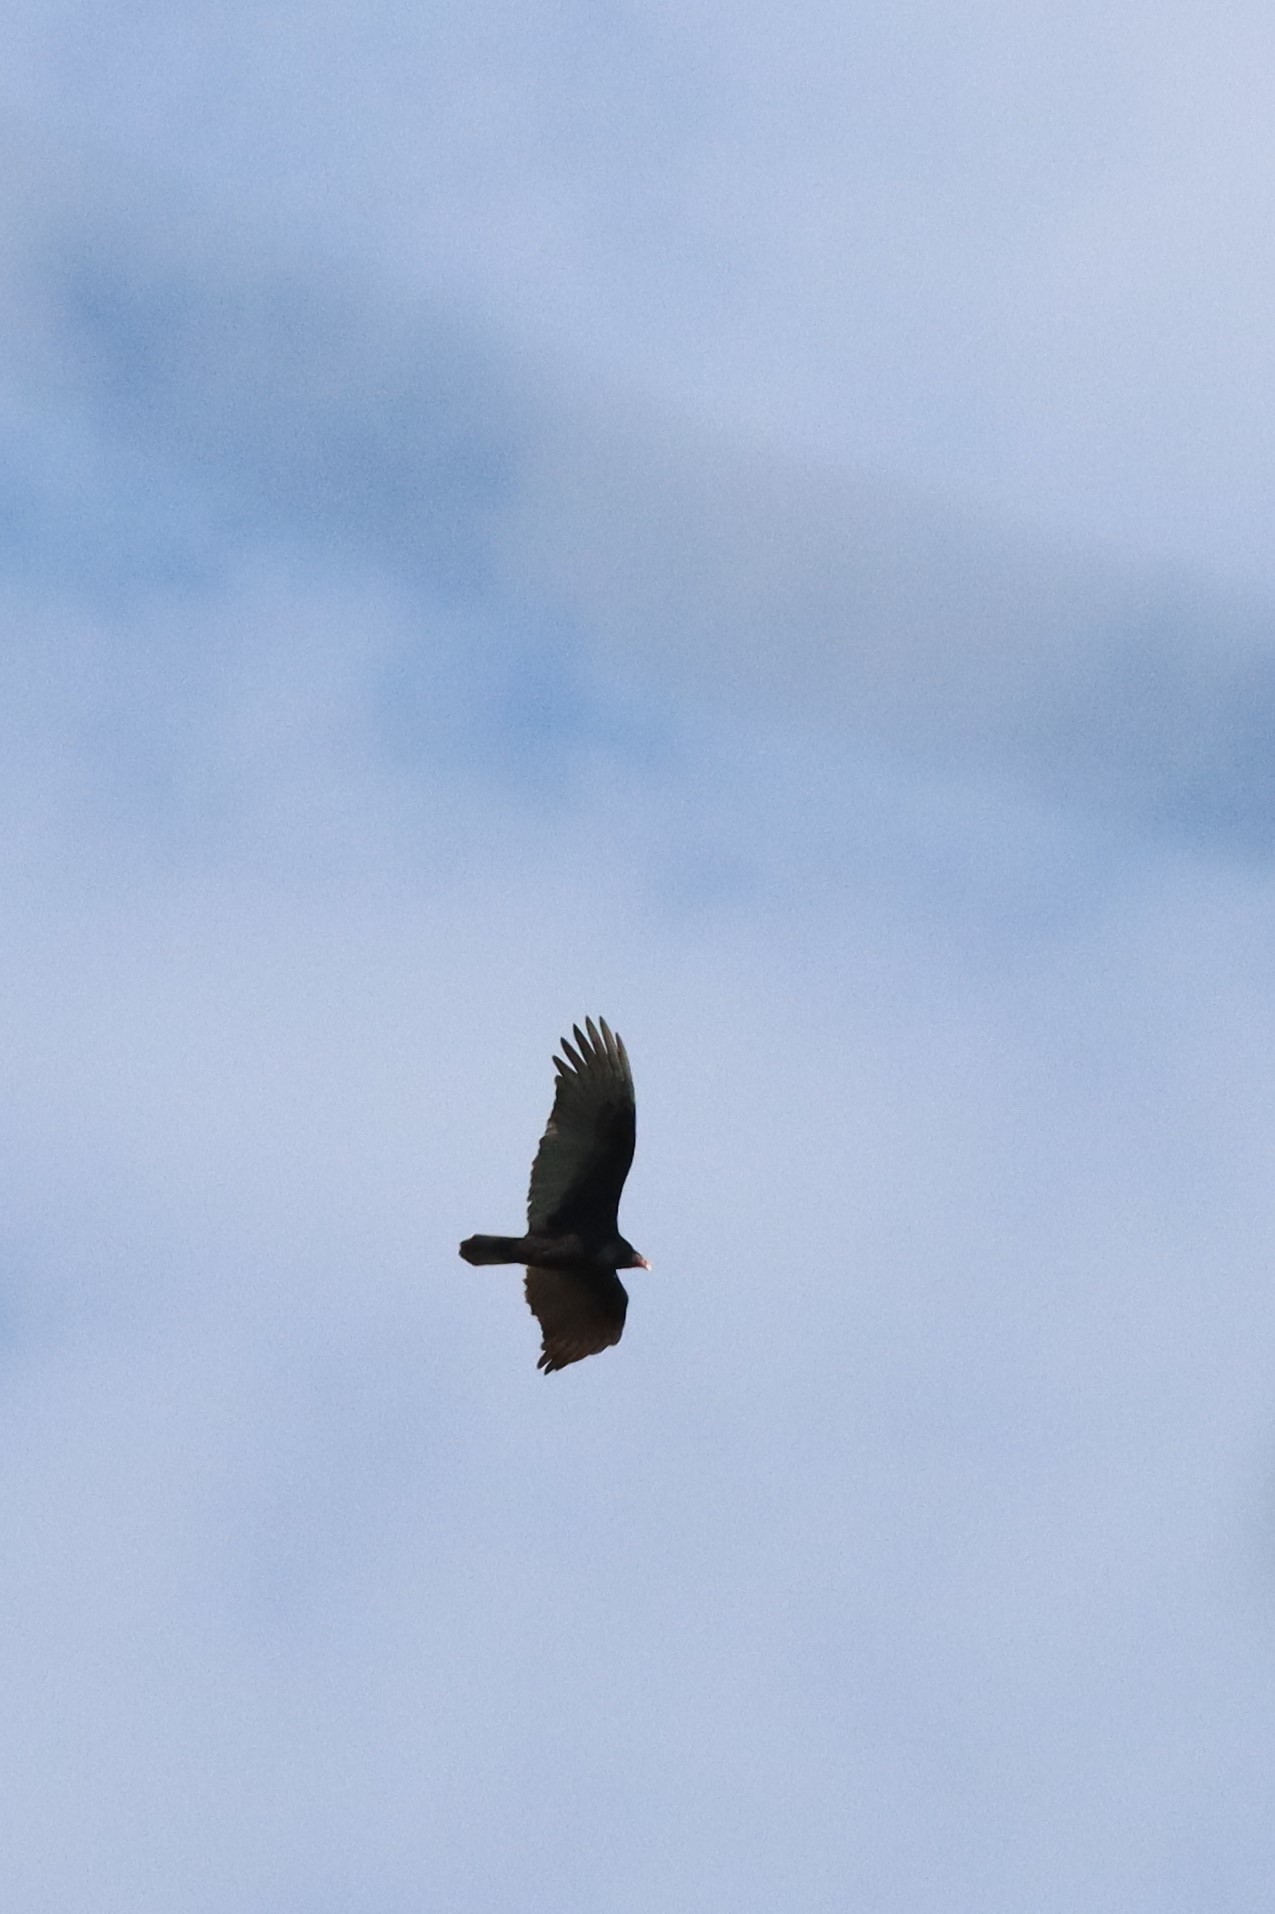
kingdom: Animalia
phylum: Chordata
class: Aves
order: Accipitriformes
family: Cathartidae
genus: Cathartes
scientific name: Cathartes aura
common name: Turkey vulture
